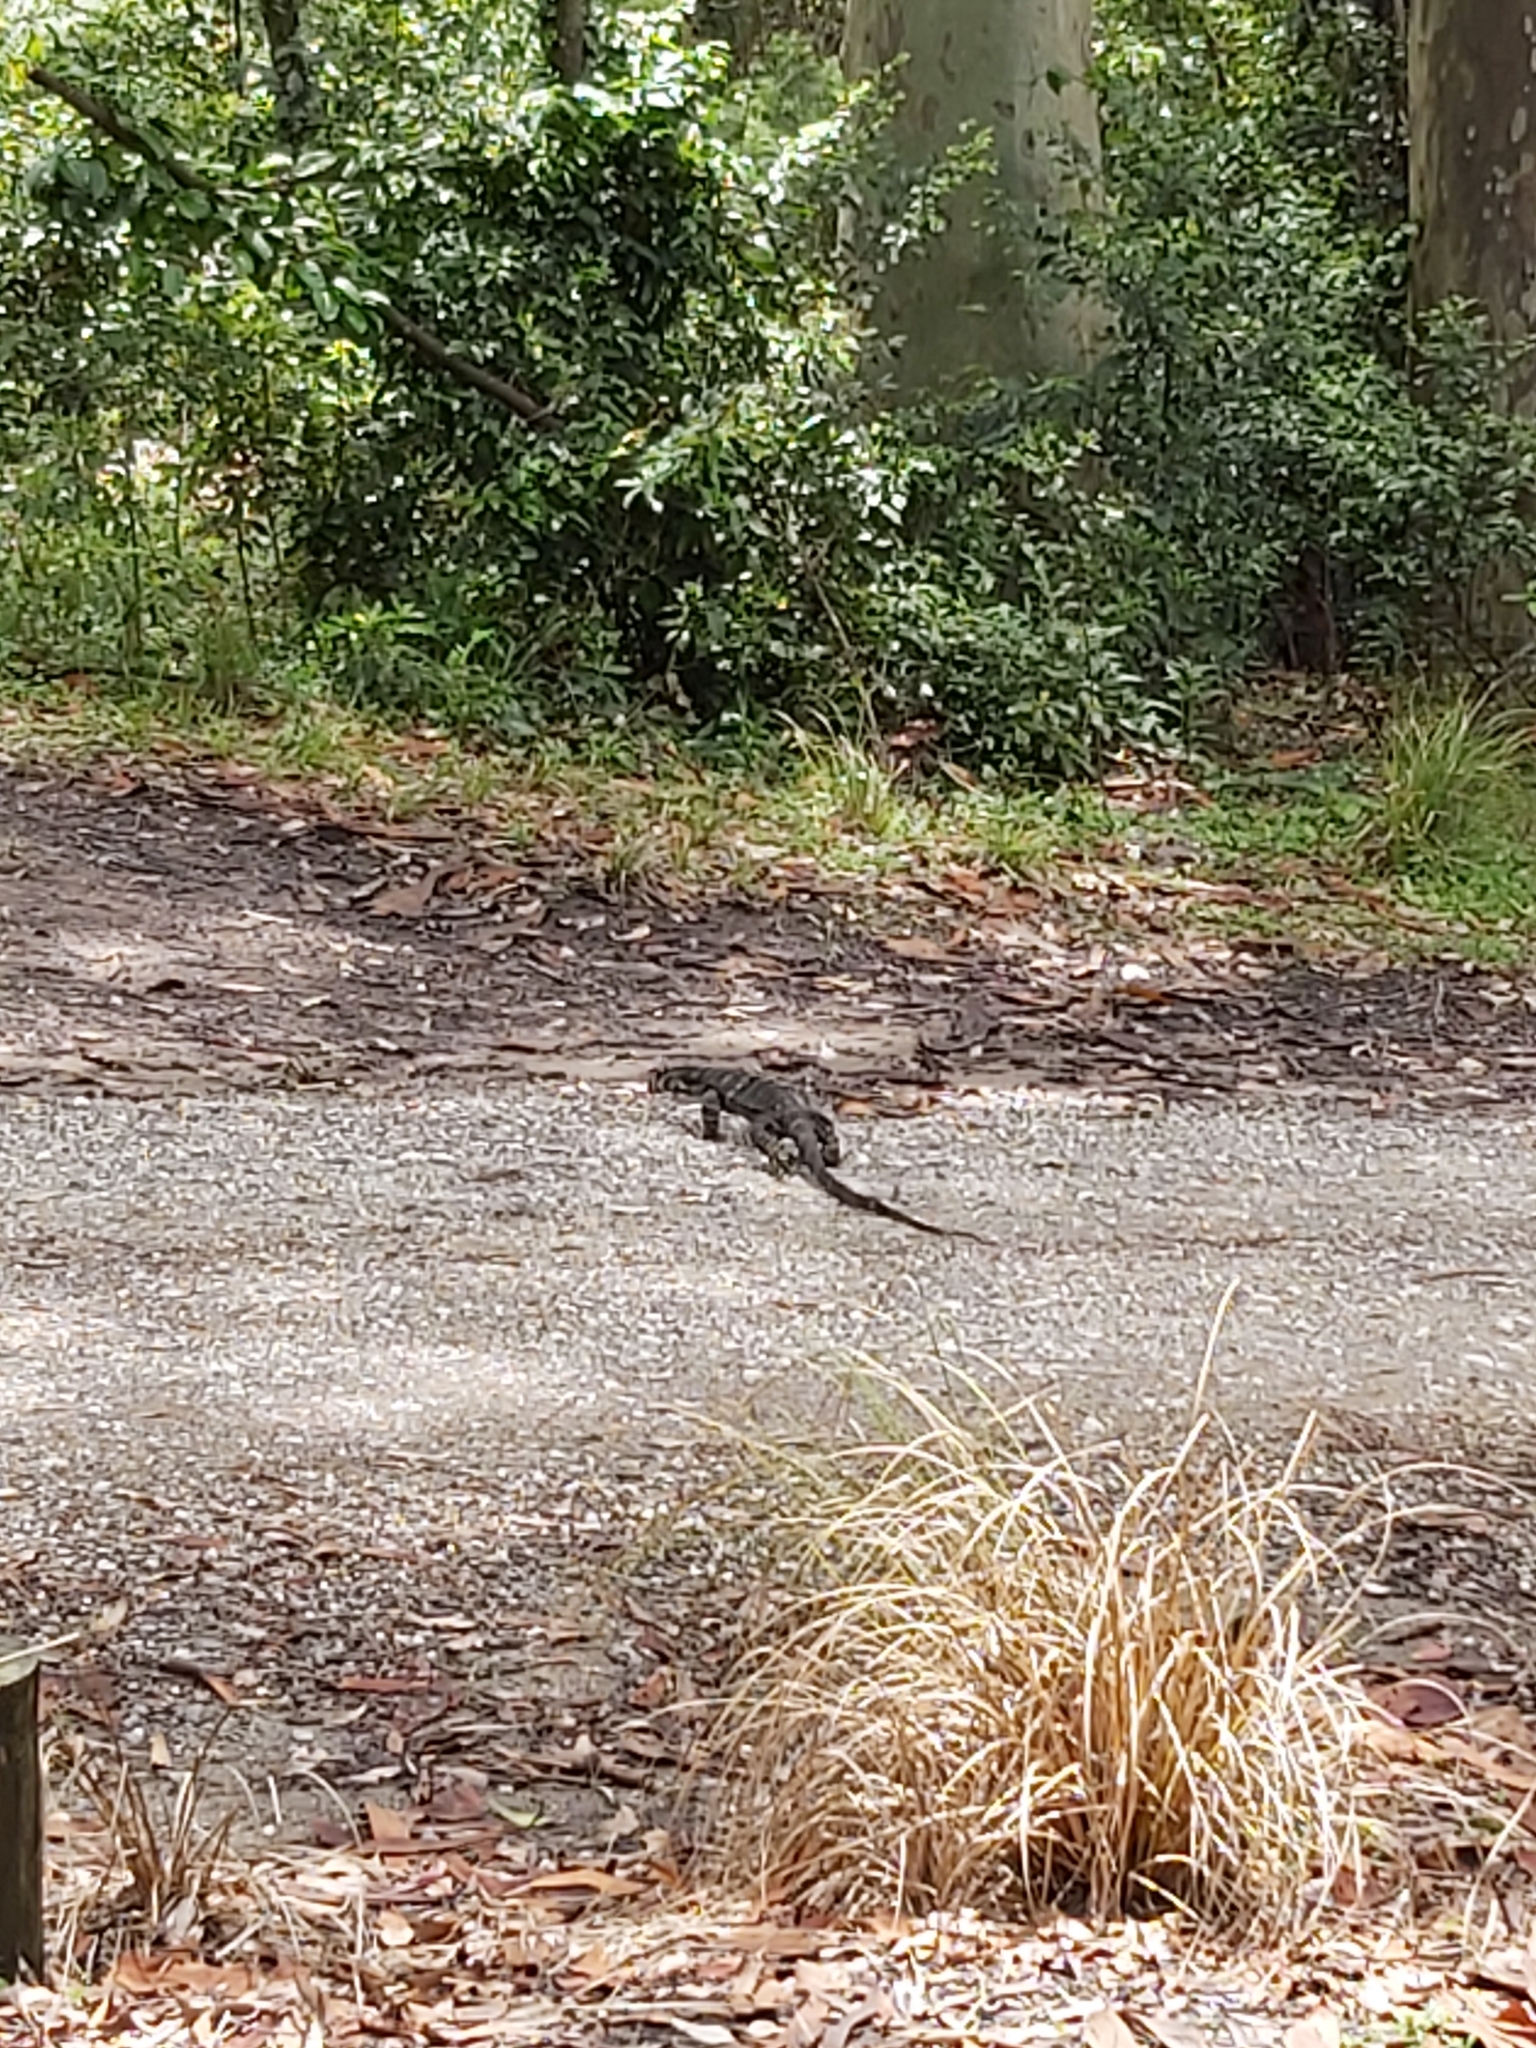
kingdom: Animalia
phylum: Chordata
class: Squamata
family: Varanidae
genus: Varanus
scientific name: Varanus varius
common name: Lace monitor
